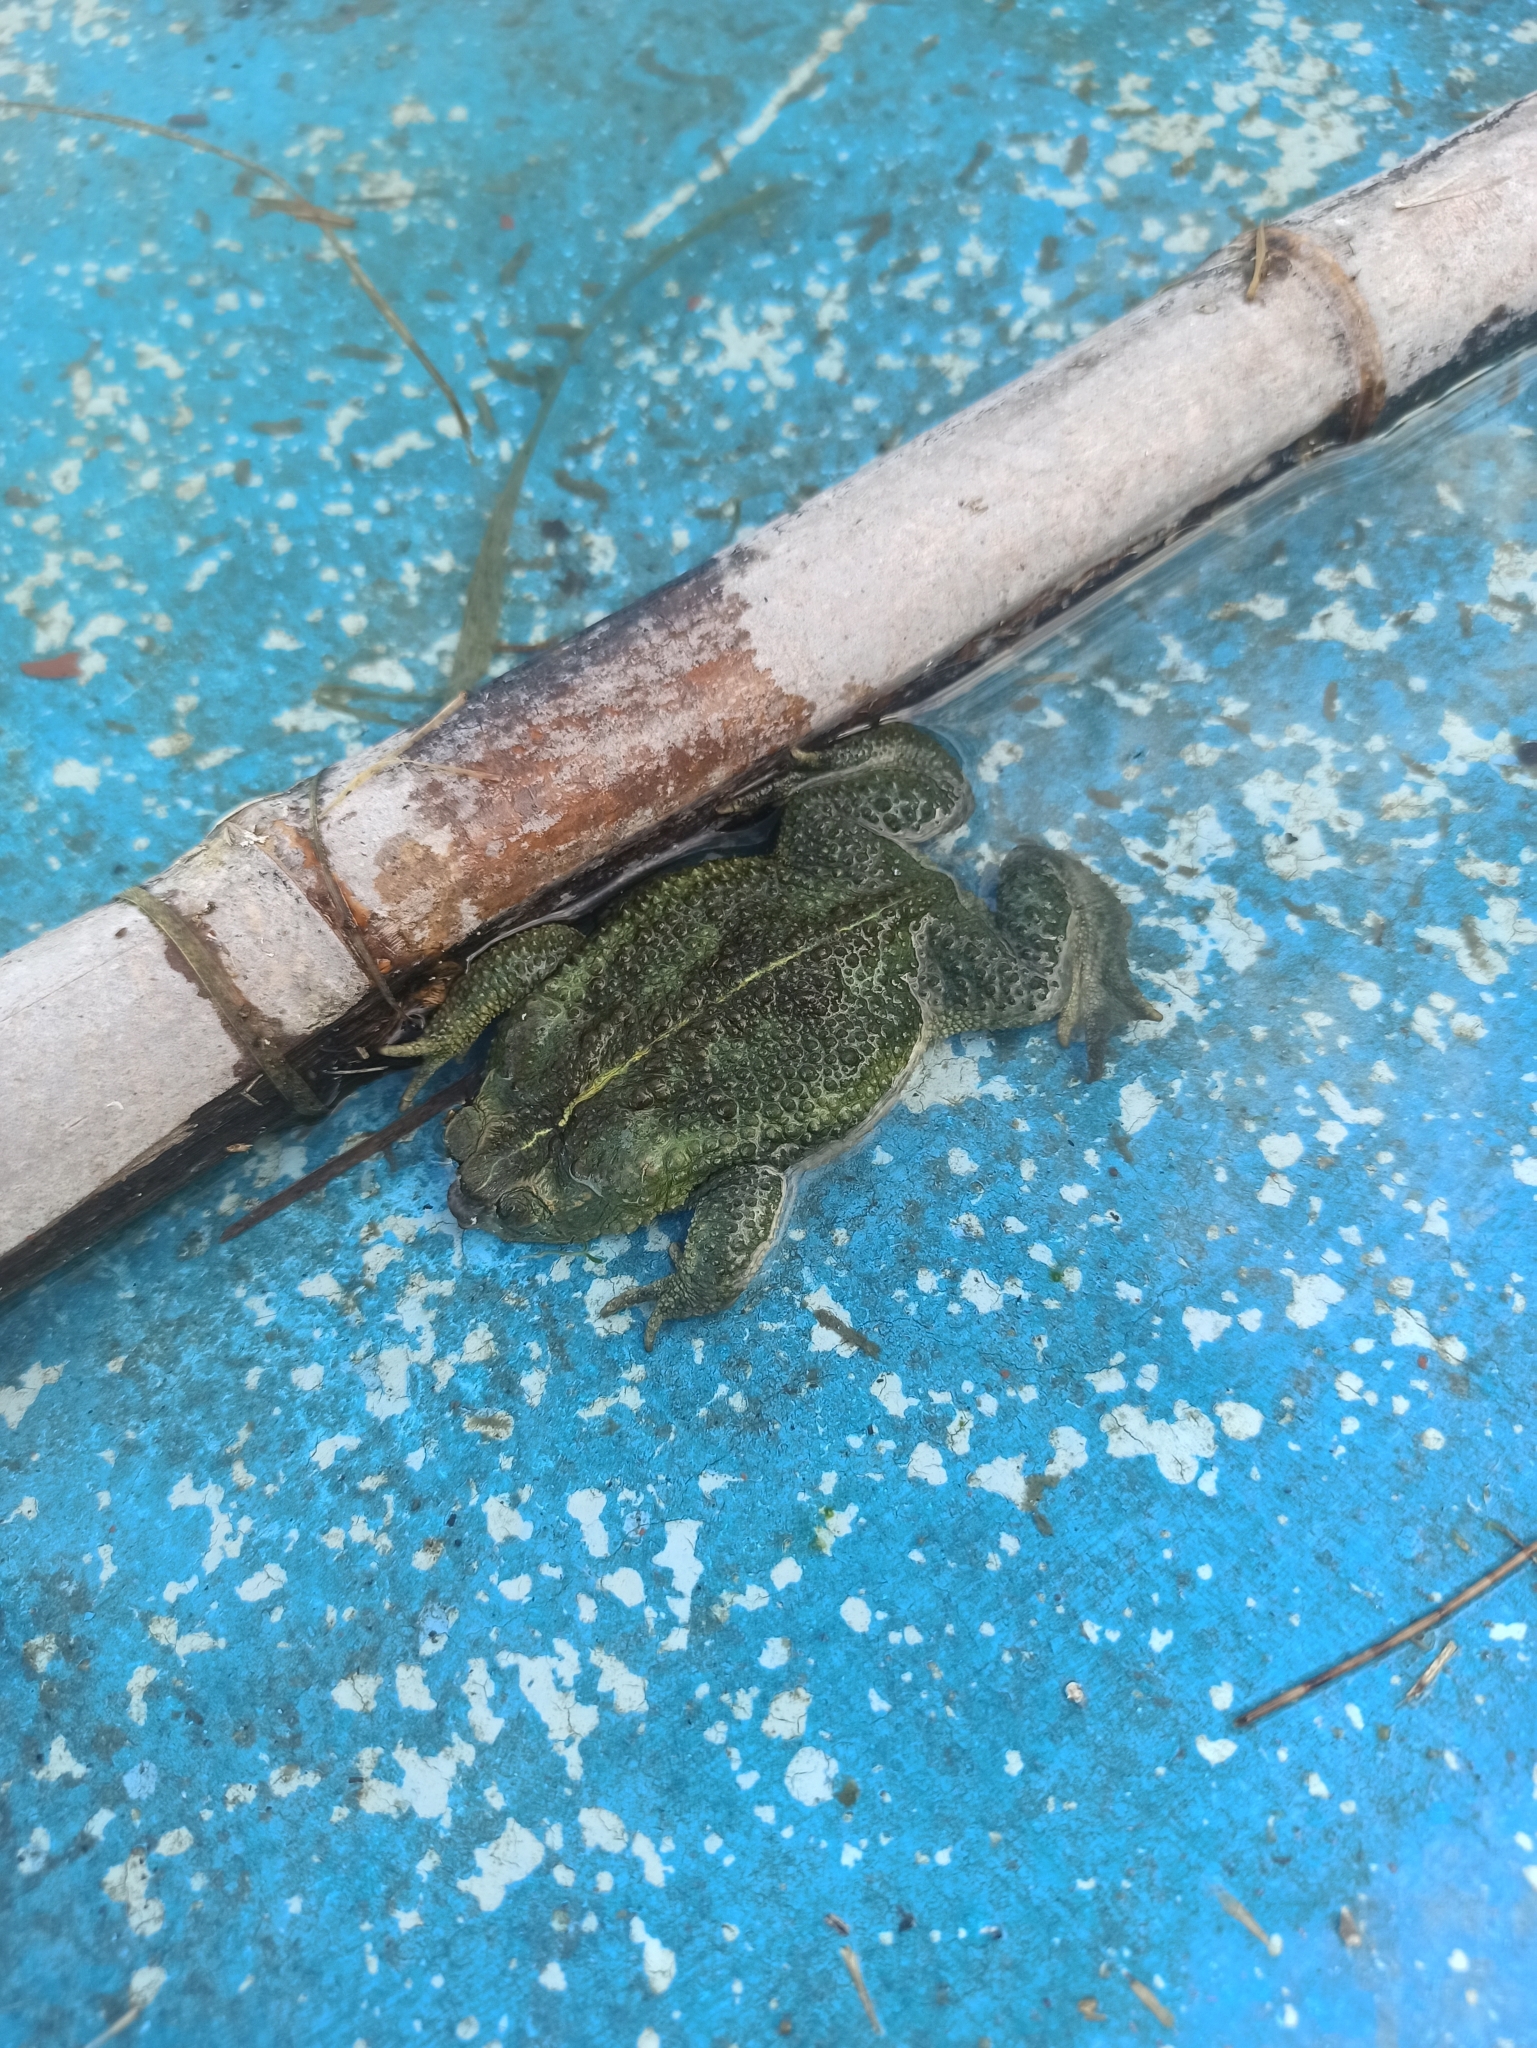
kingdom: Animalia
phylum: Chordata
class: Amphibia
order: Anura
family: Bufonidae
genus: Rhinella
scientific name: Rhinella dorbignyi
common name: D´orbigny’s toad
